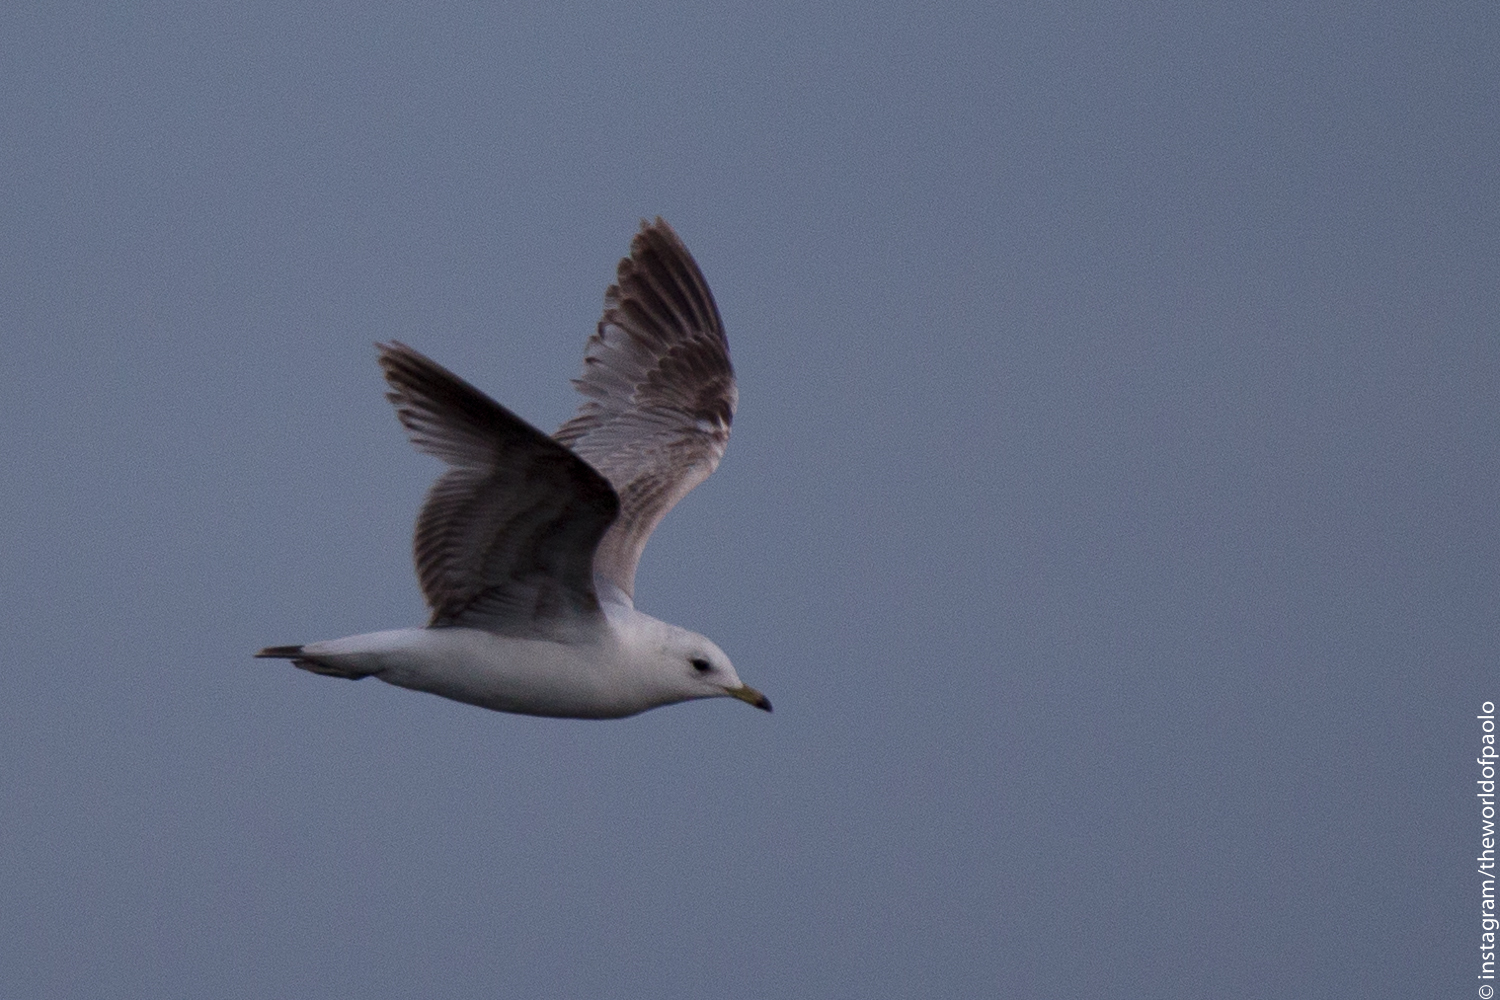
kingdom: Animalia
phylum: Chordata
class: Aves
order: Charadriiformes
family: Laridae
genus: Larus
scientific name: Larus canus
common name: Mew gull
